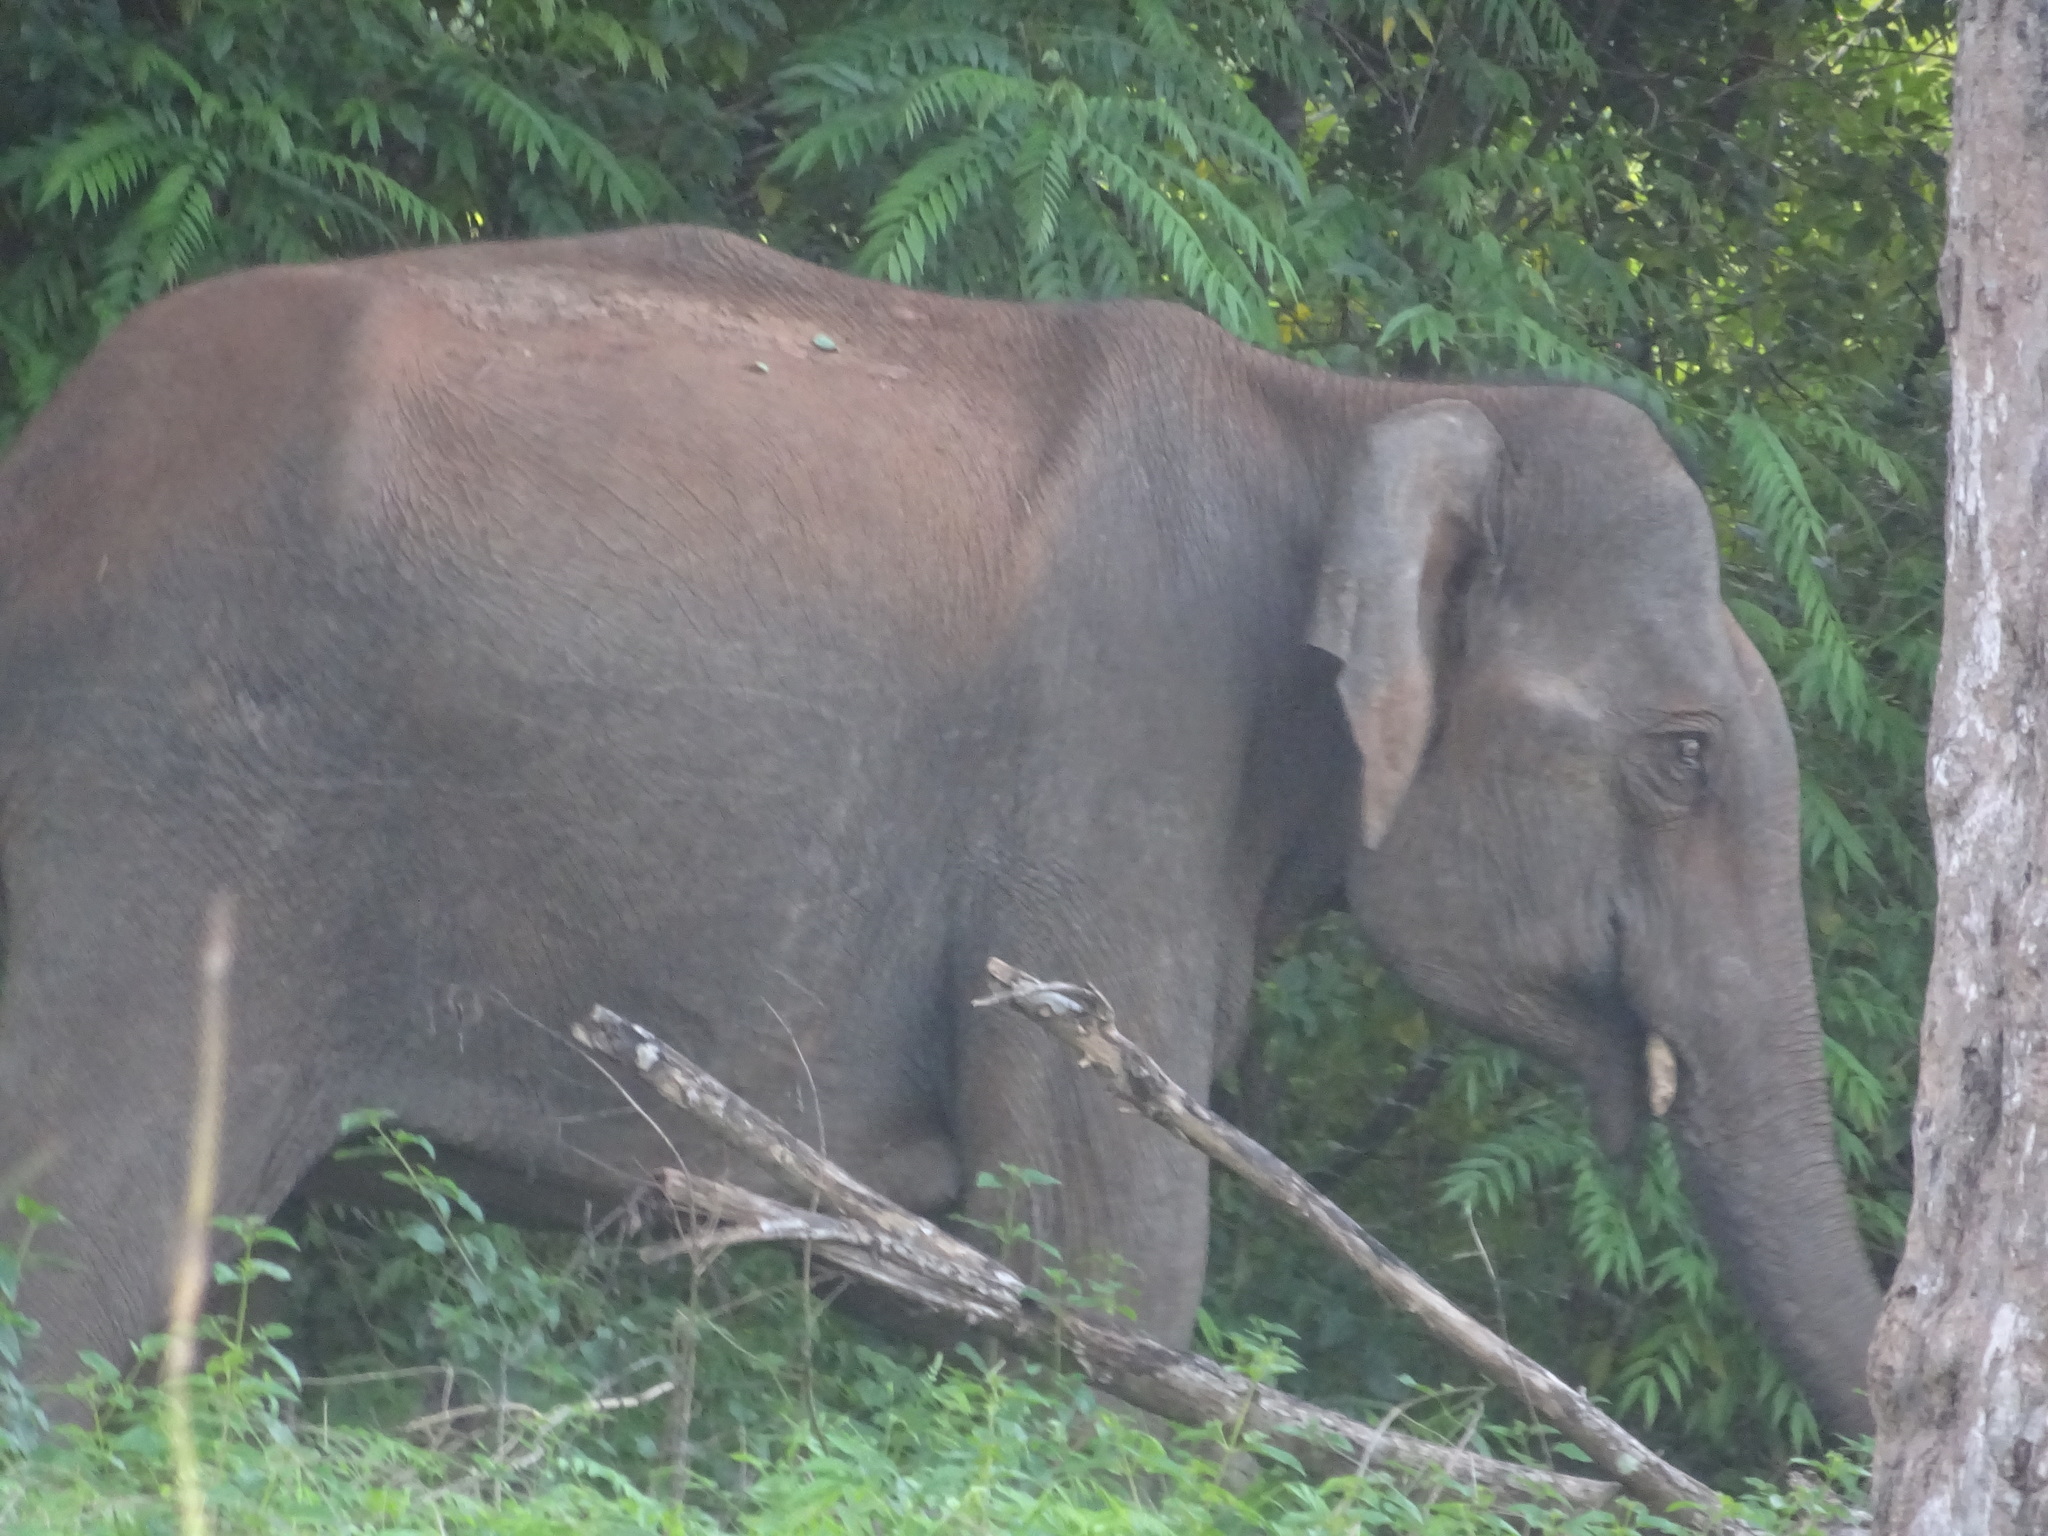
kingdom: Animalia
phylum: Chordata
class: Mammalia
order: Proboscidea
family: Elephantidae
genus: Elephas
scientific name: Elephas maximus
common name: Asian elephant
